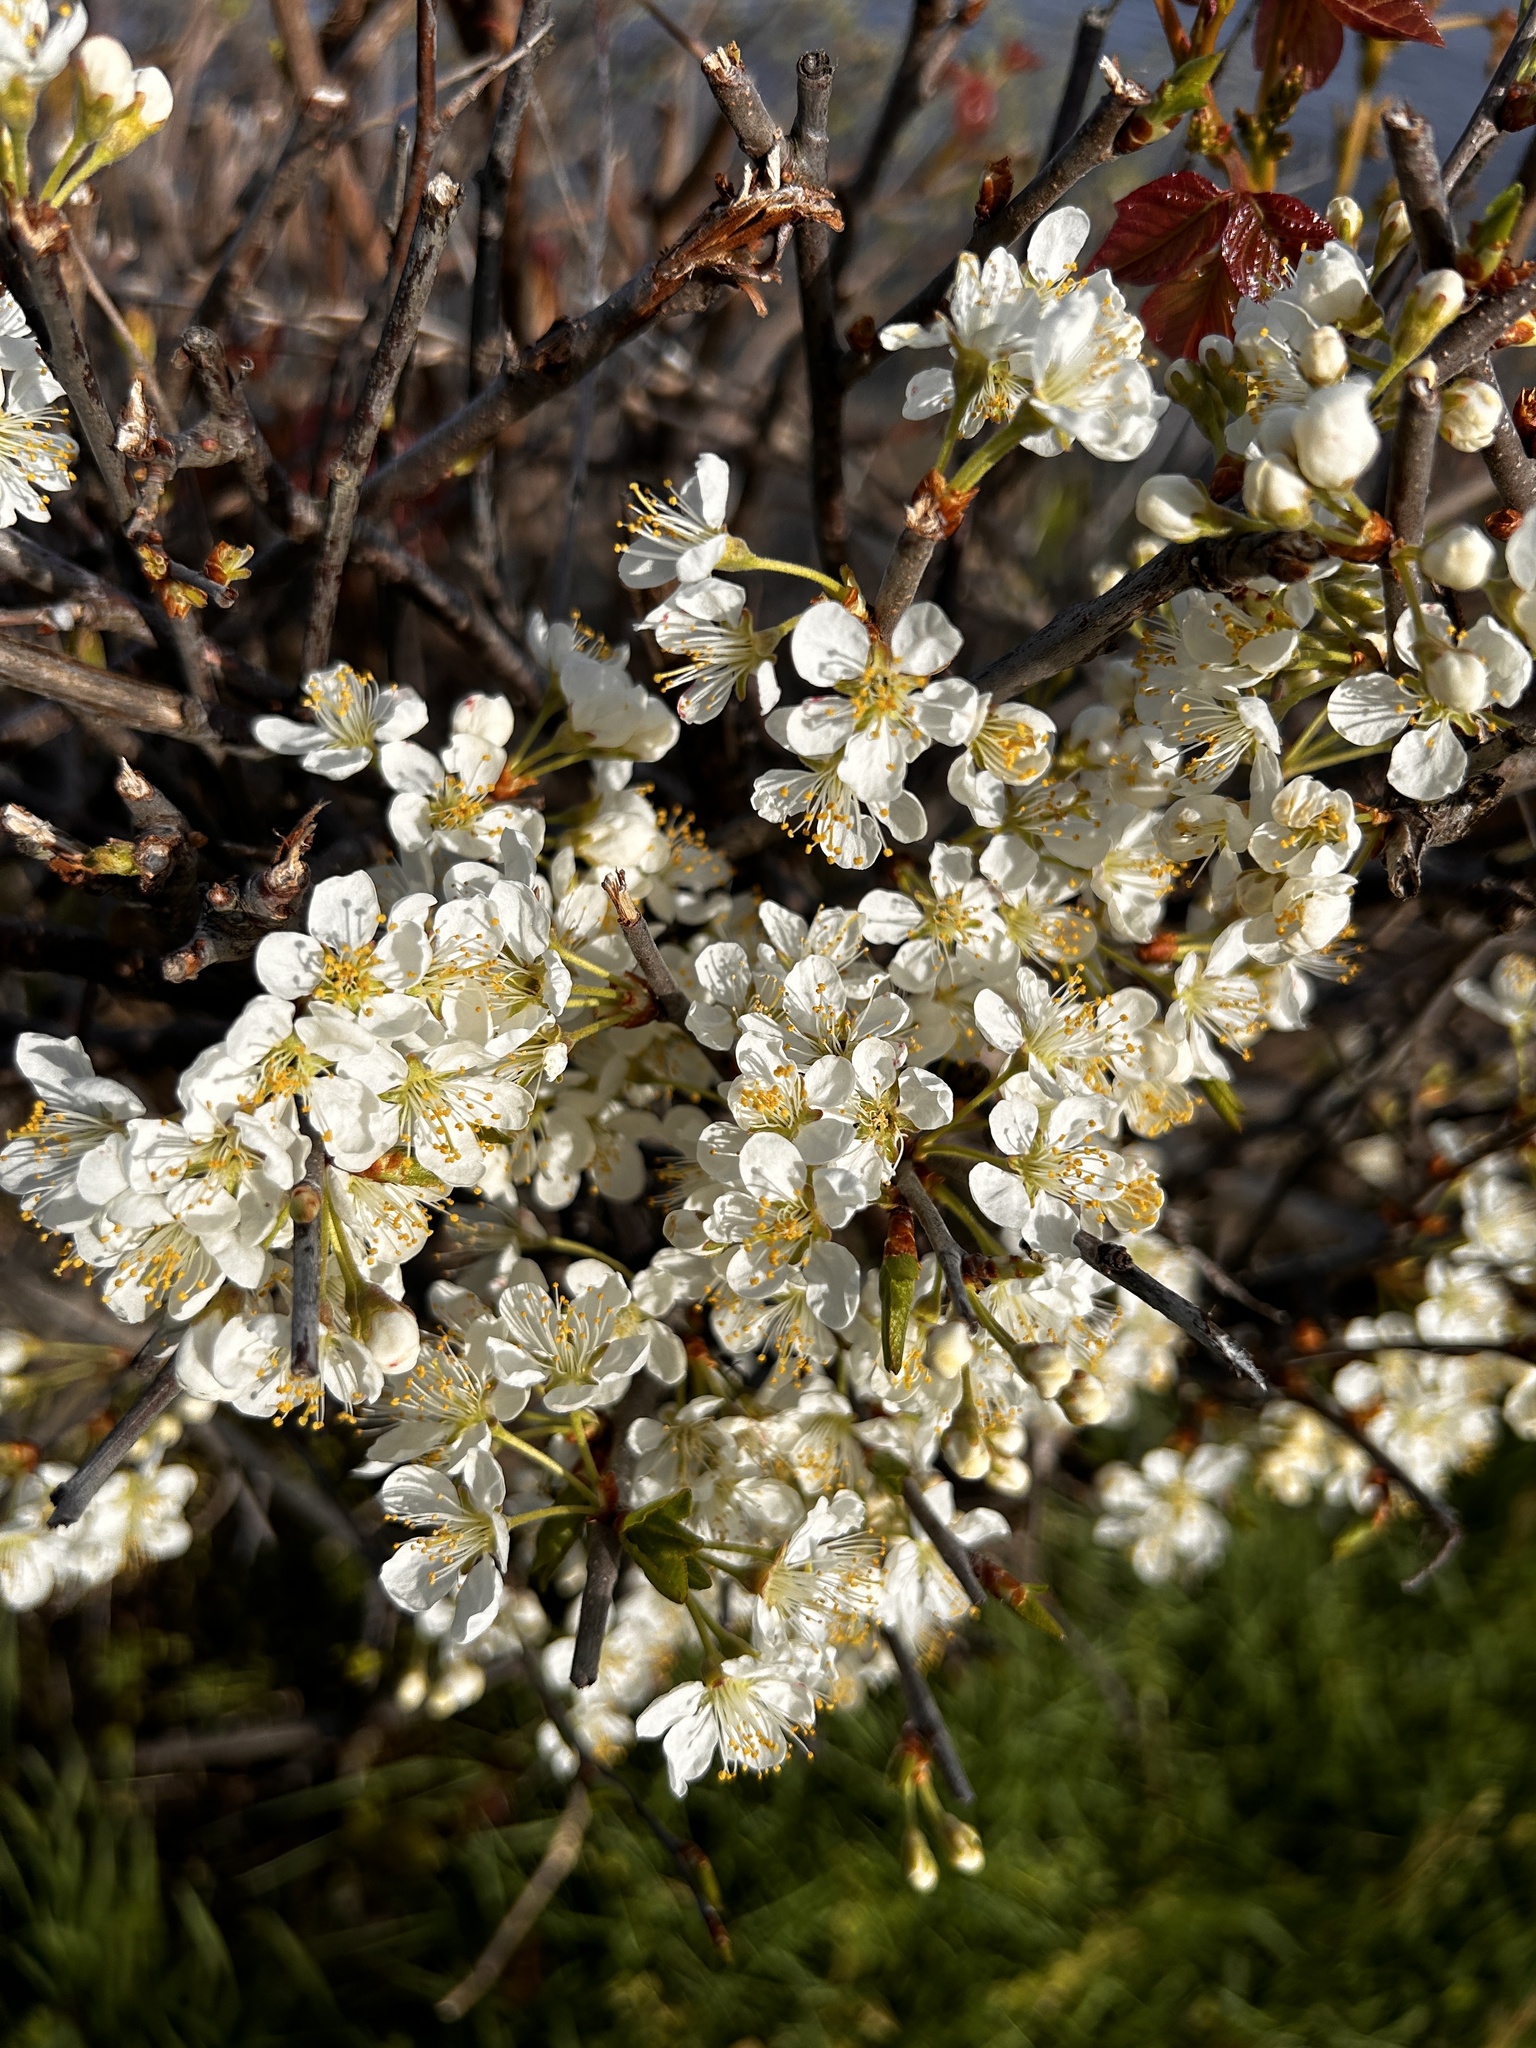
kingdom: Plantae
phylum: Tracheophyta
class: Magnoliopsida
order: Rosales
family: Rosaceae
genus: Prunus
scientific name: Prunus maritima
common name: Beach plum
